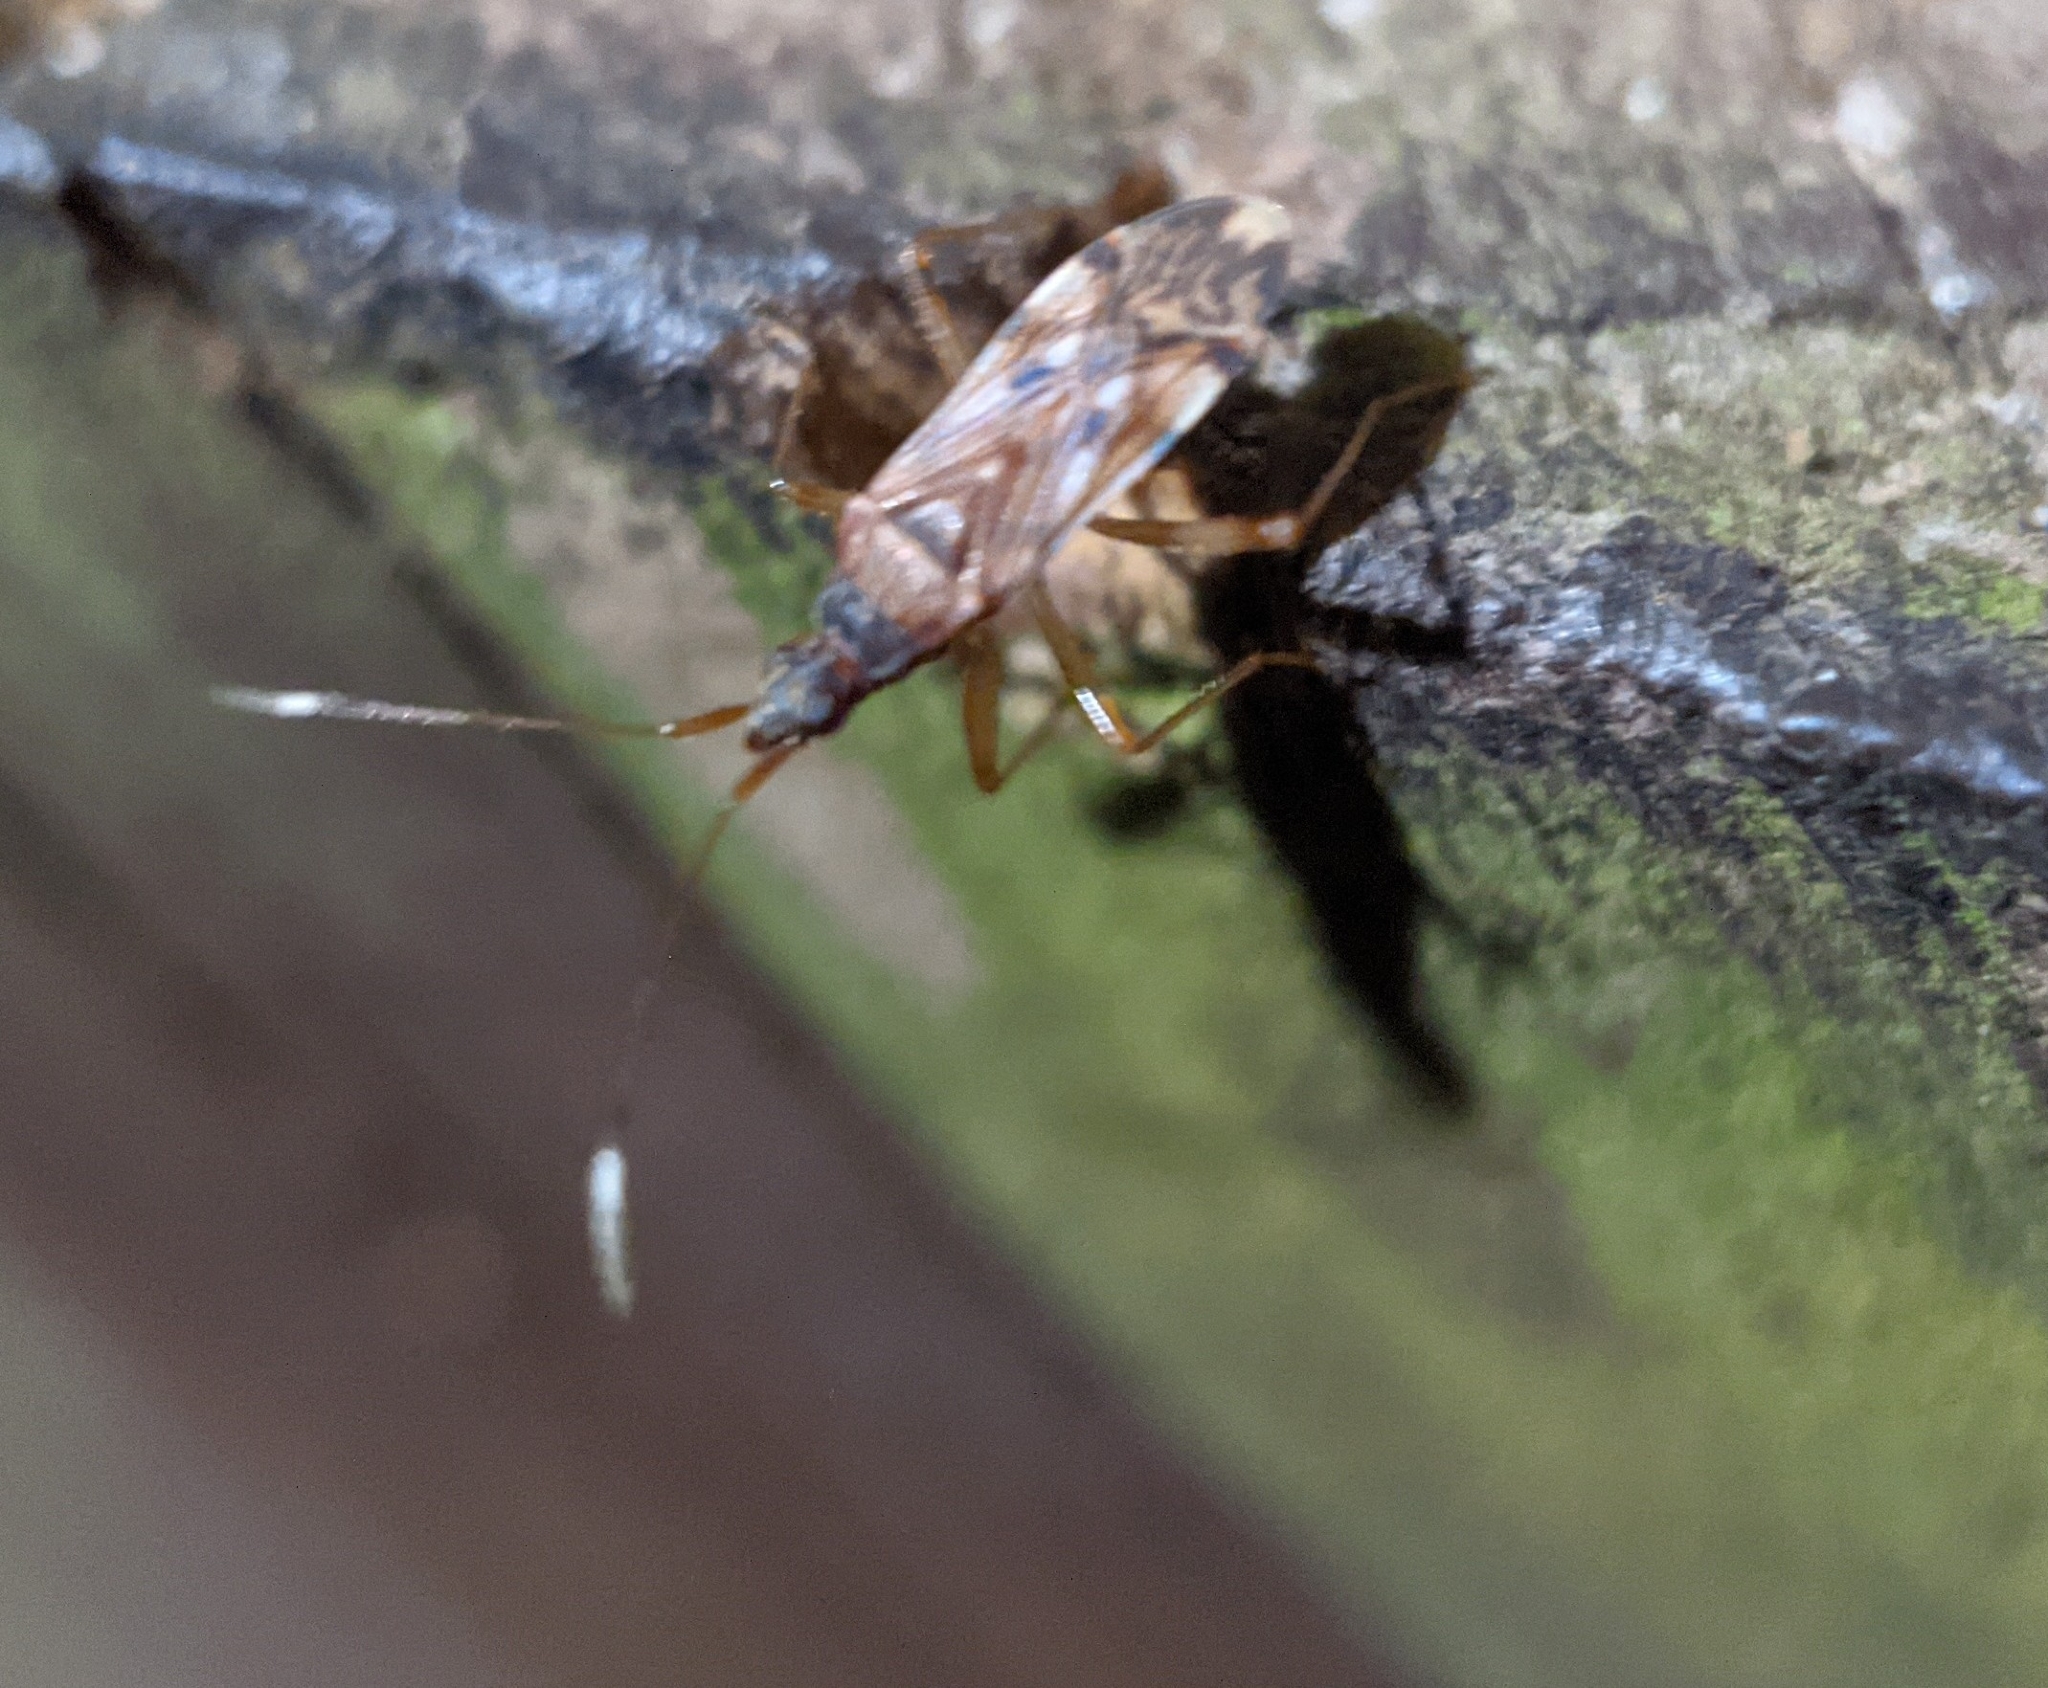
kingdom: Animalia
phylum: Arthropoda
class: Insecta
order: Hemiptera
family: Rhyparochromidae
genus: Ozophora
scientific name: Ozophora picturata
